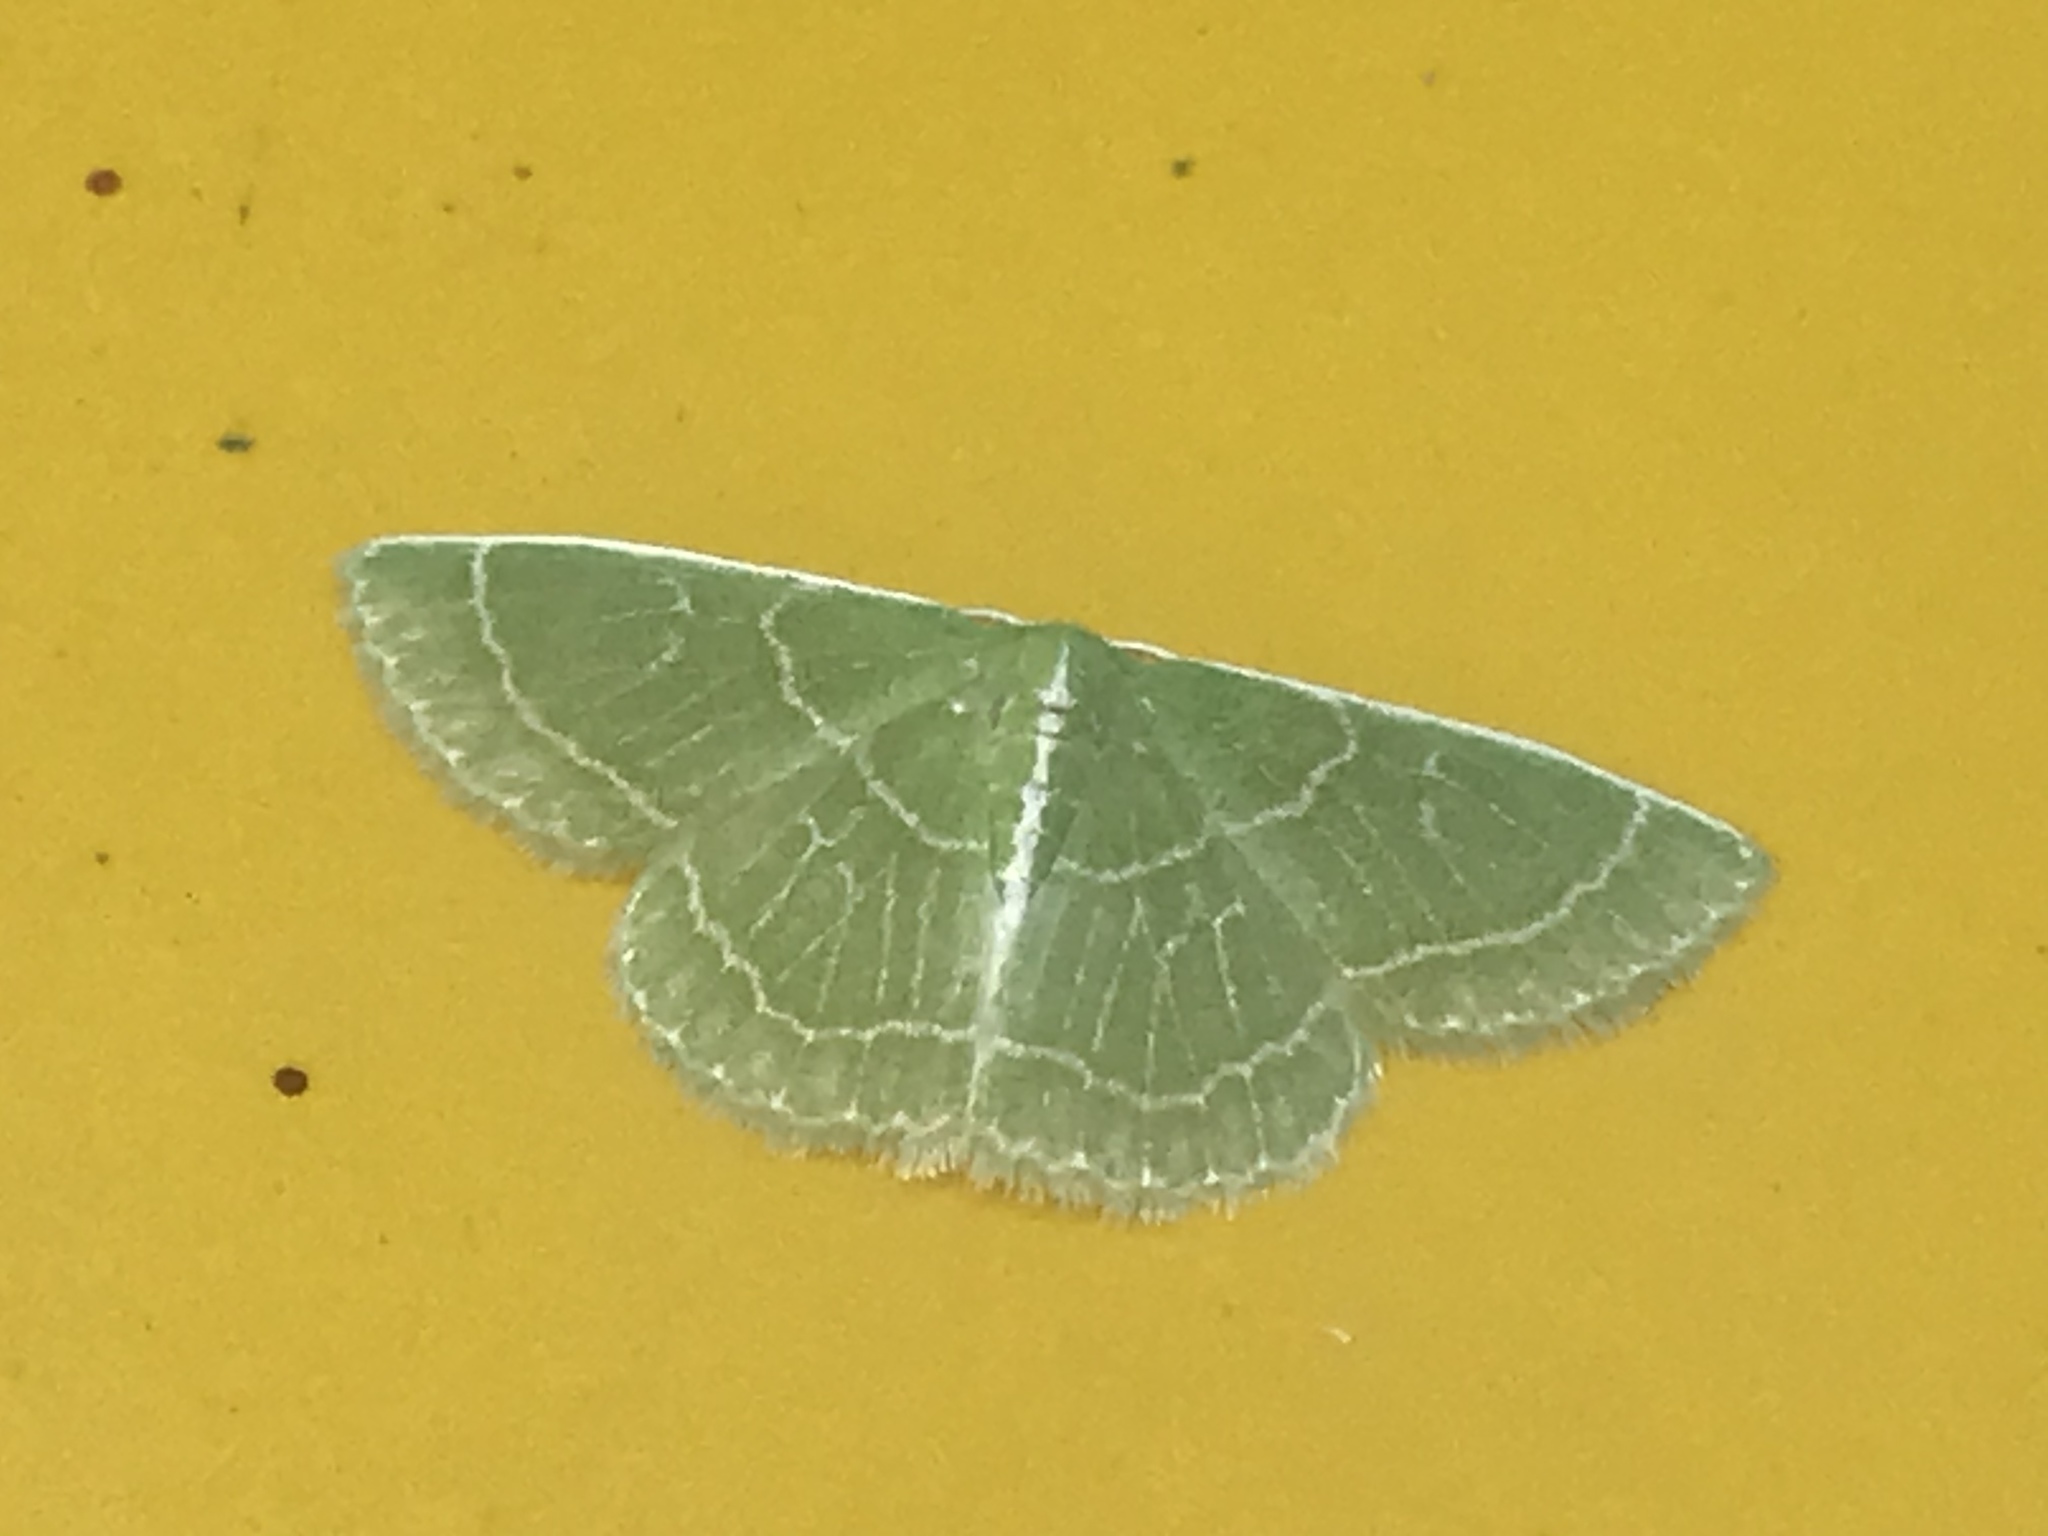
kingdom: Animalia
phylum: Arthropoda
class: Insecta
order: Lepidoptera
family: Geometridae
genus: Synchlora
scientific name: Synchlora aerata
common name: Wavy-lined emerald
